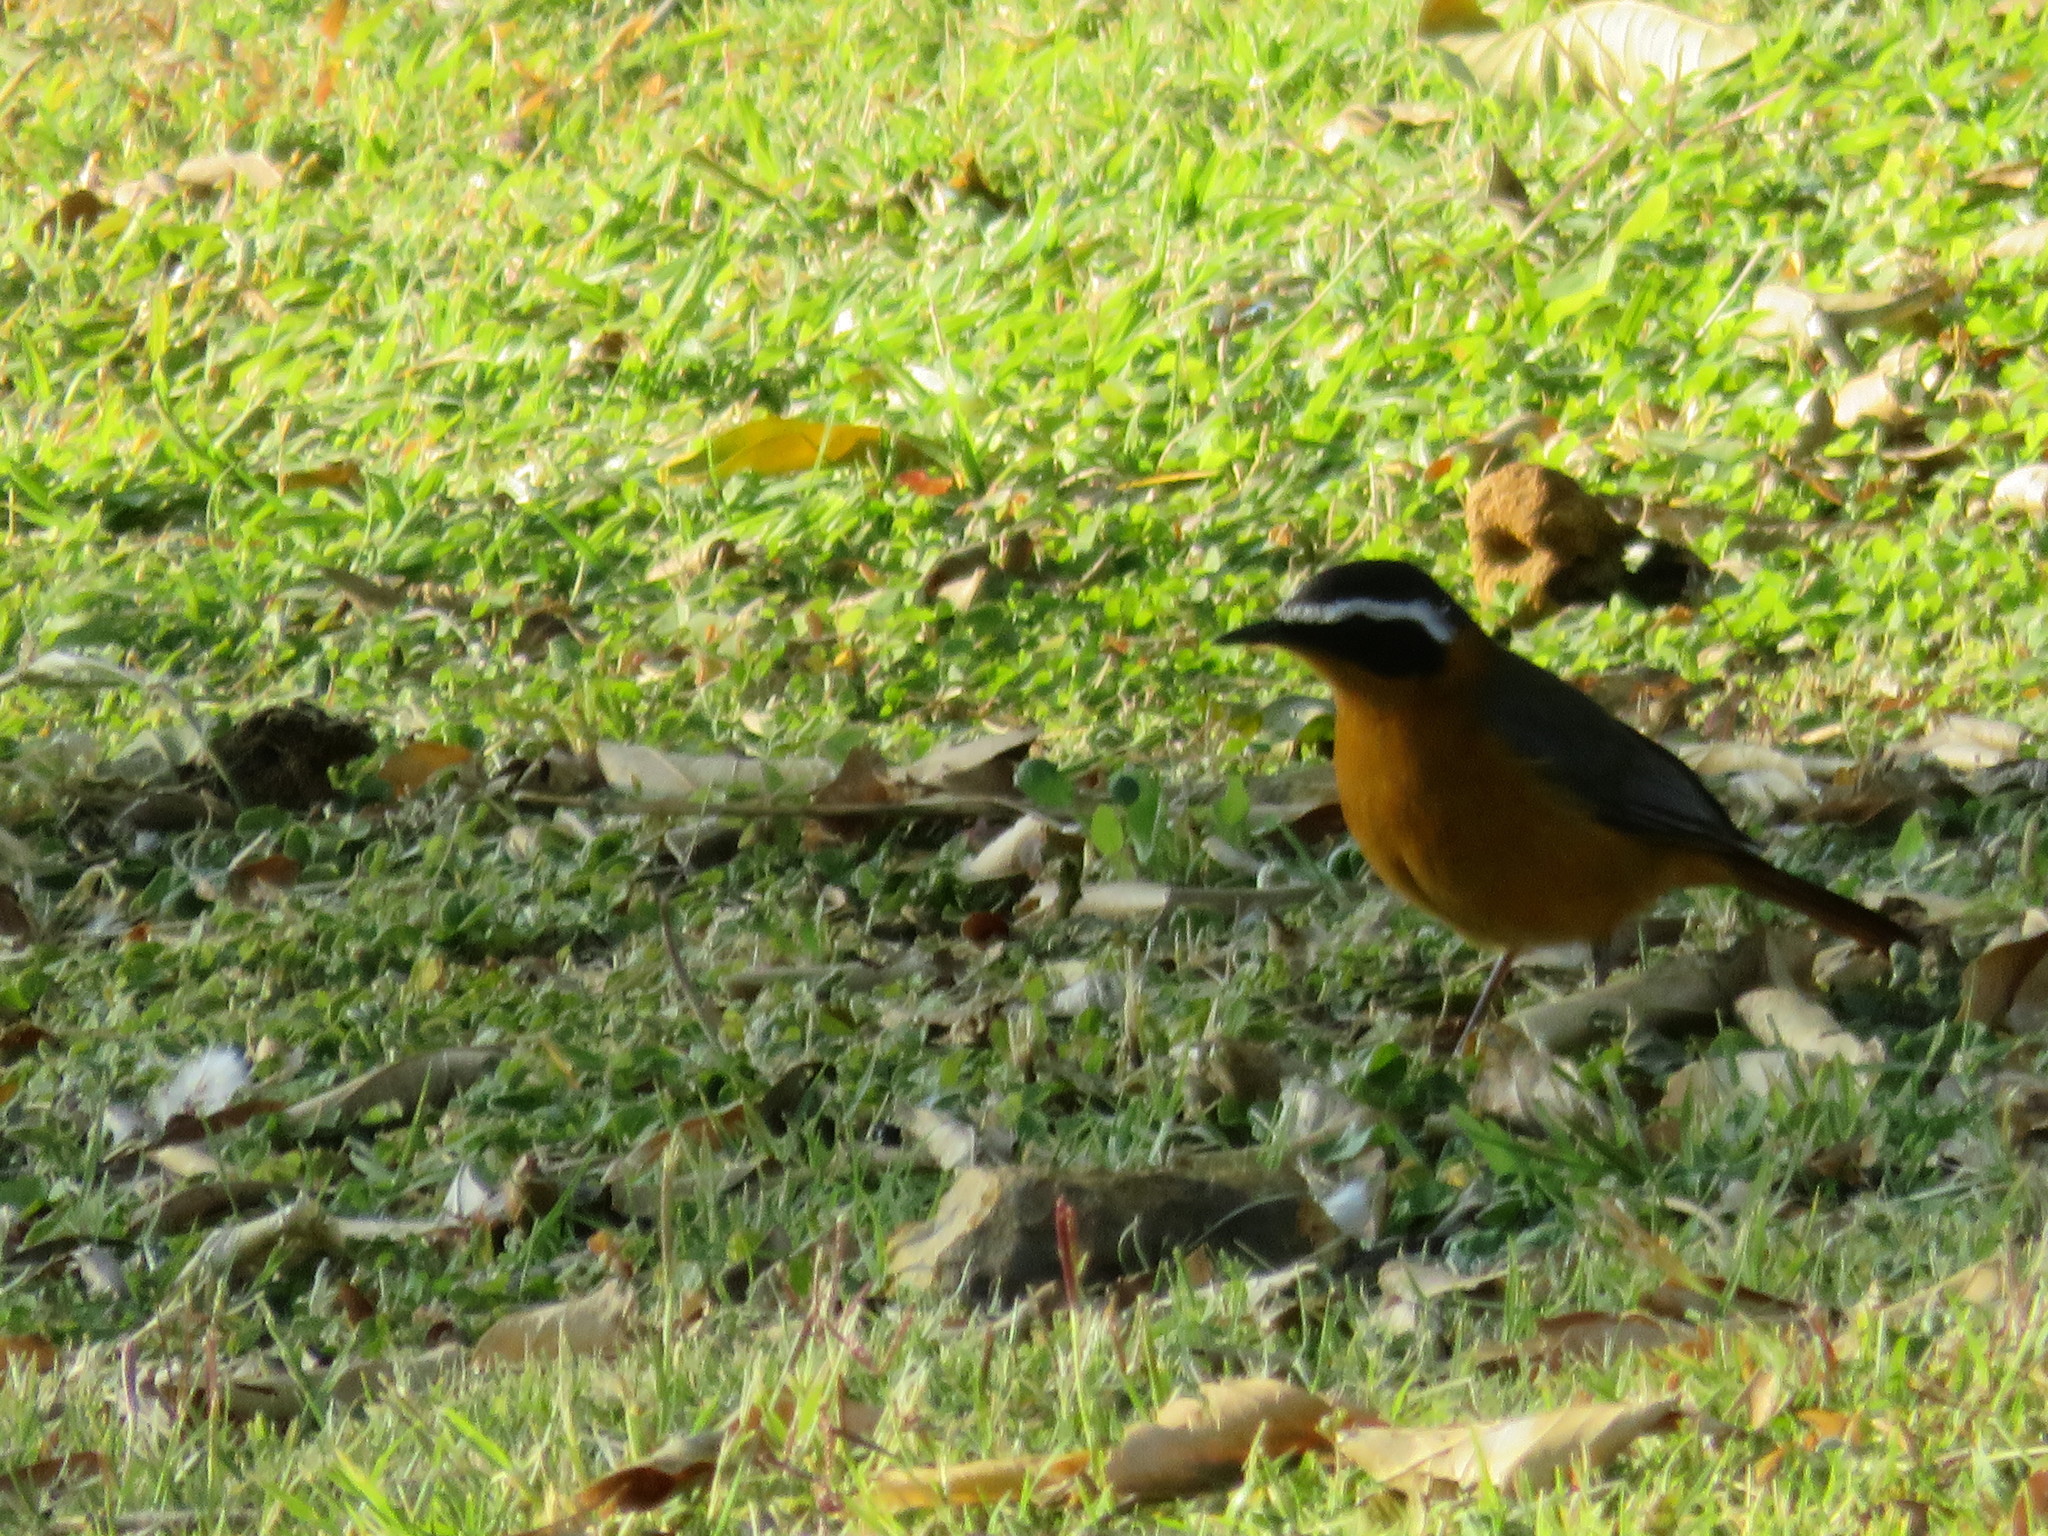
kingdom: Animalia
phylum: Chordata
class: Aves
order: Passeriformes
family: Muscicapidae
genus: Cossypha
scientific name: Cossypha heuglini
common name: White-browed robin-chat
